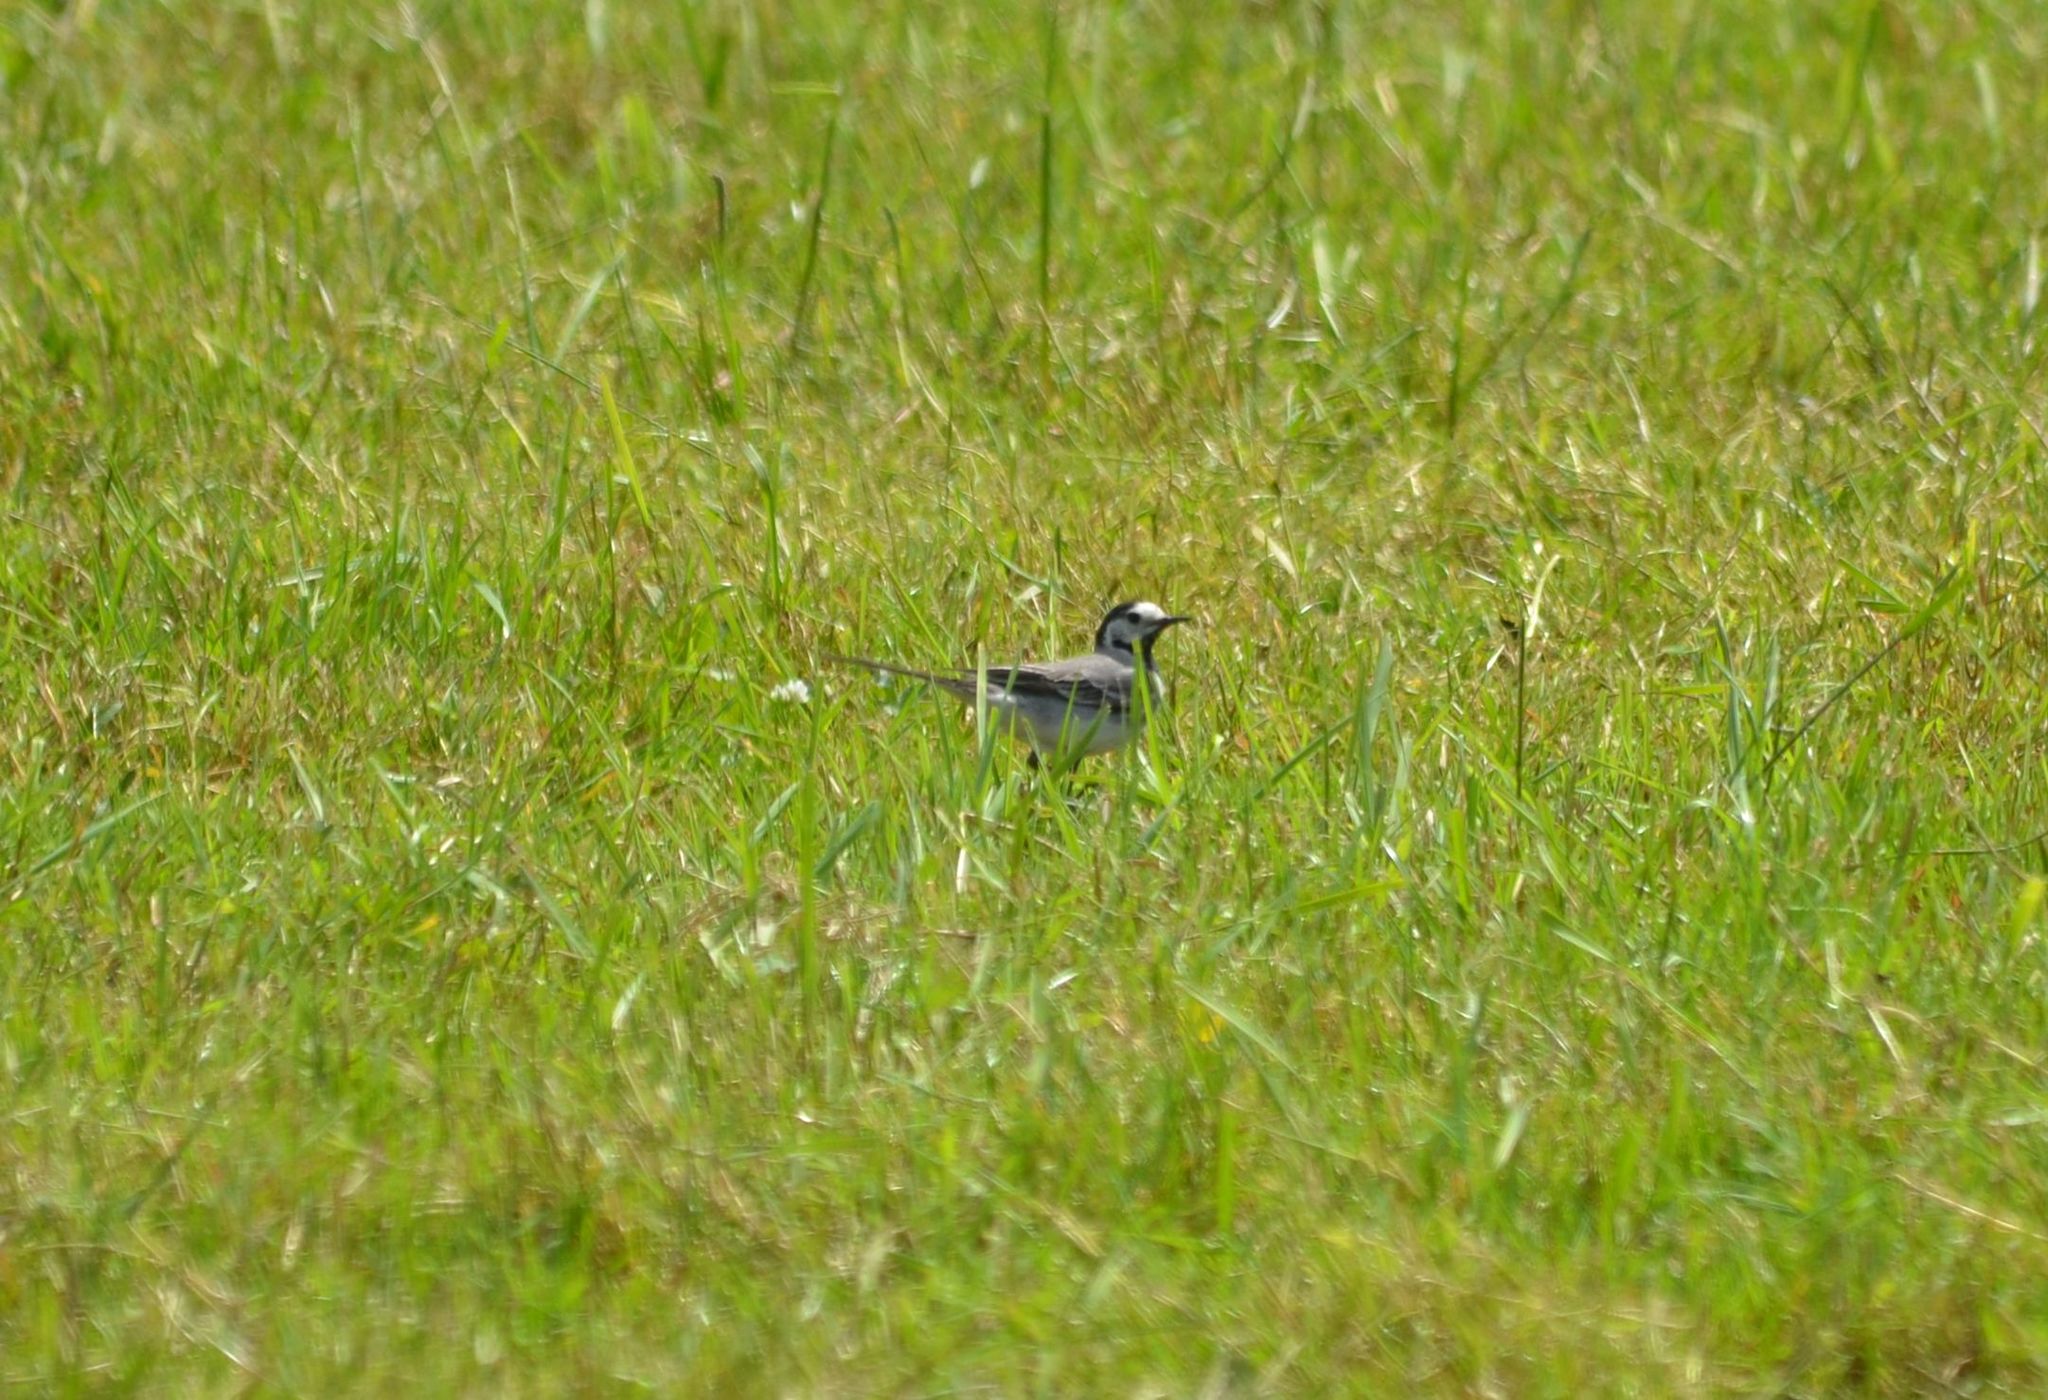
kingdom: Animalia
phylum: Chordata
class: Aves
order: Passeriformes
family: Motacillidae
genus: Motacilla
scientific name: Motacilla alba
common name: White wagtail
